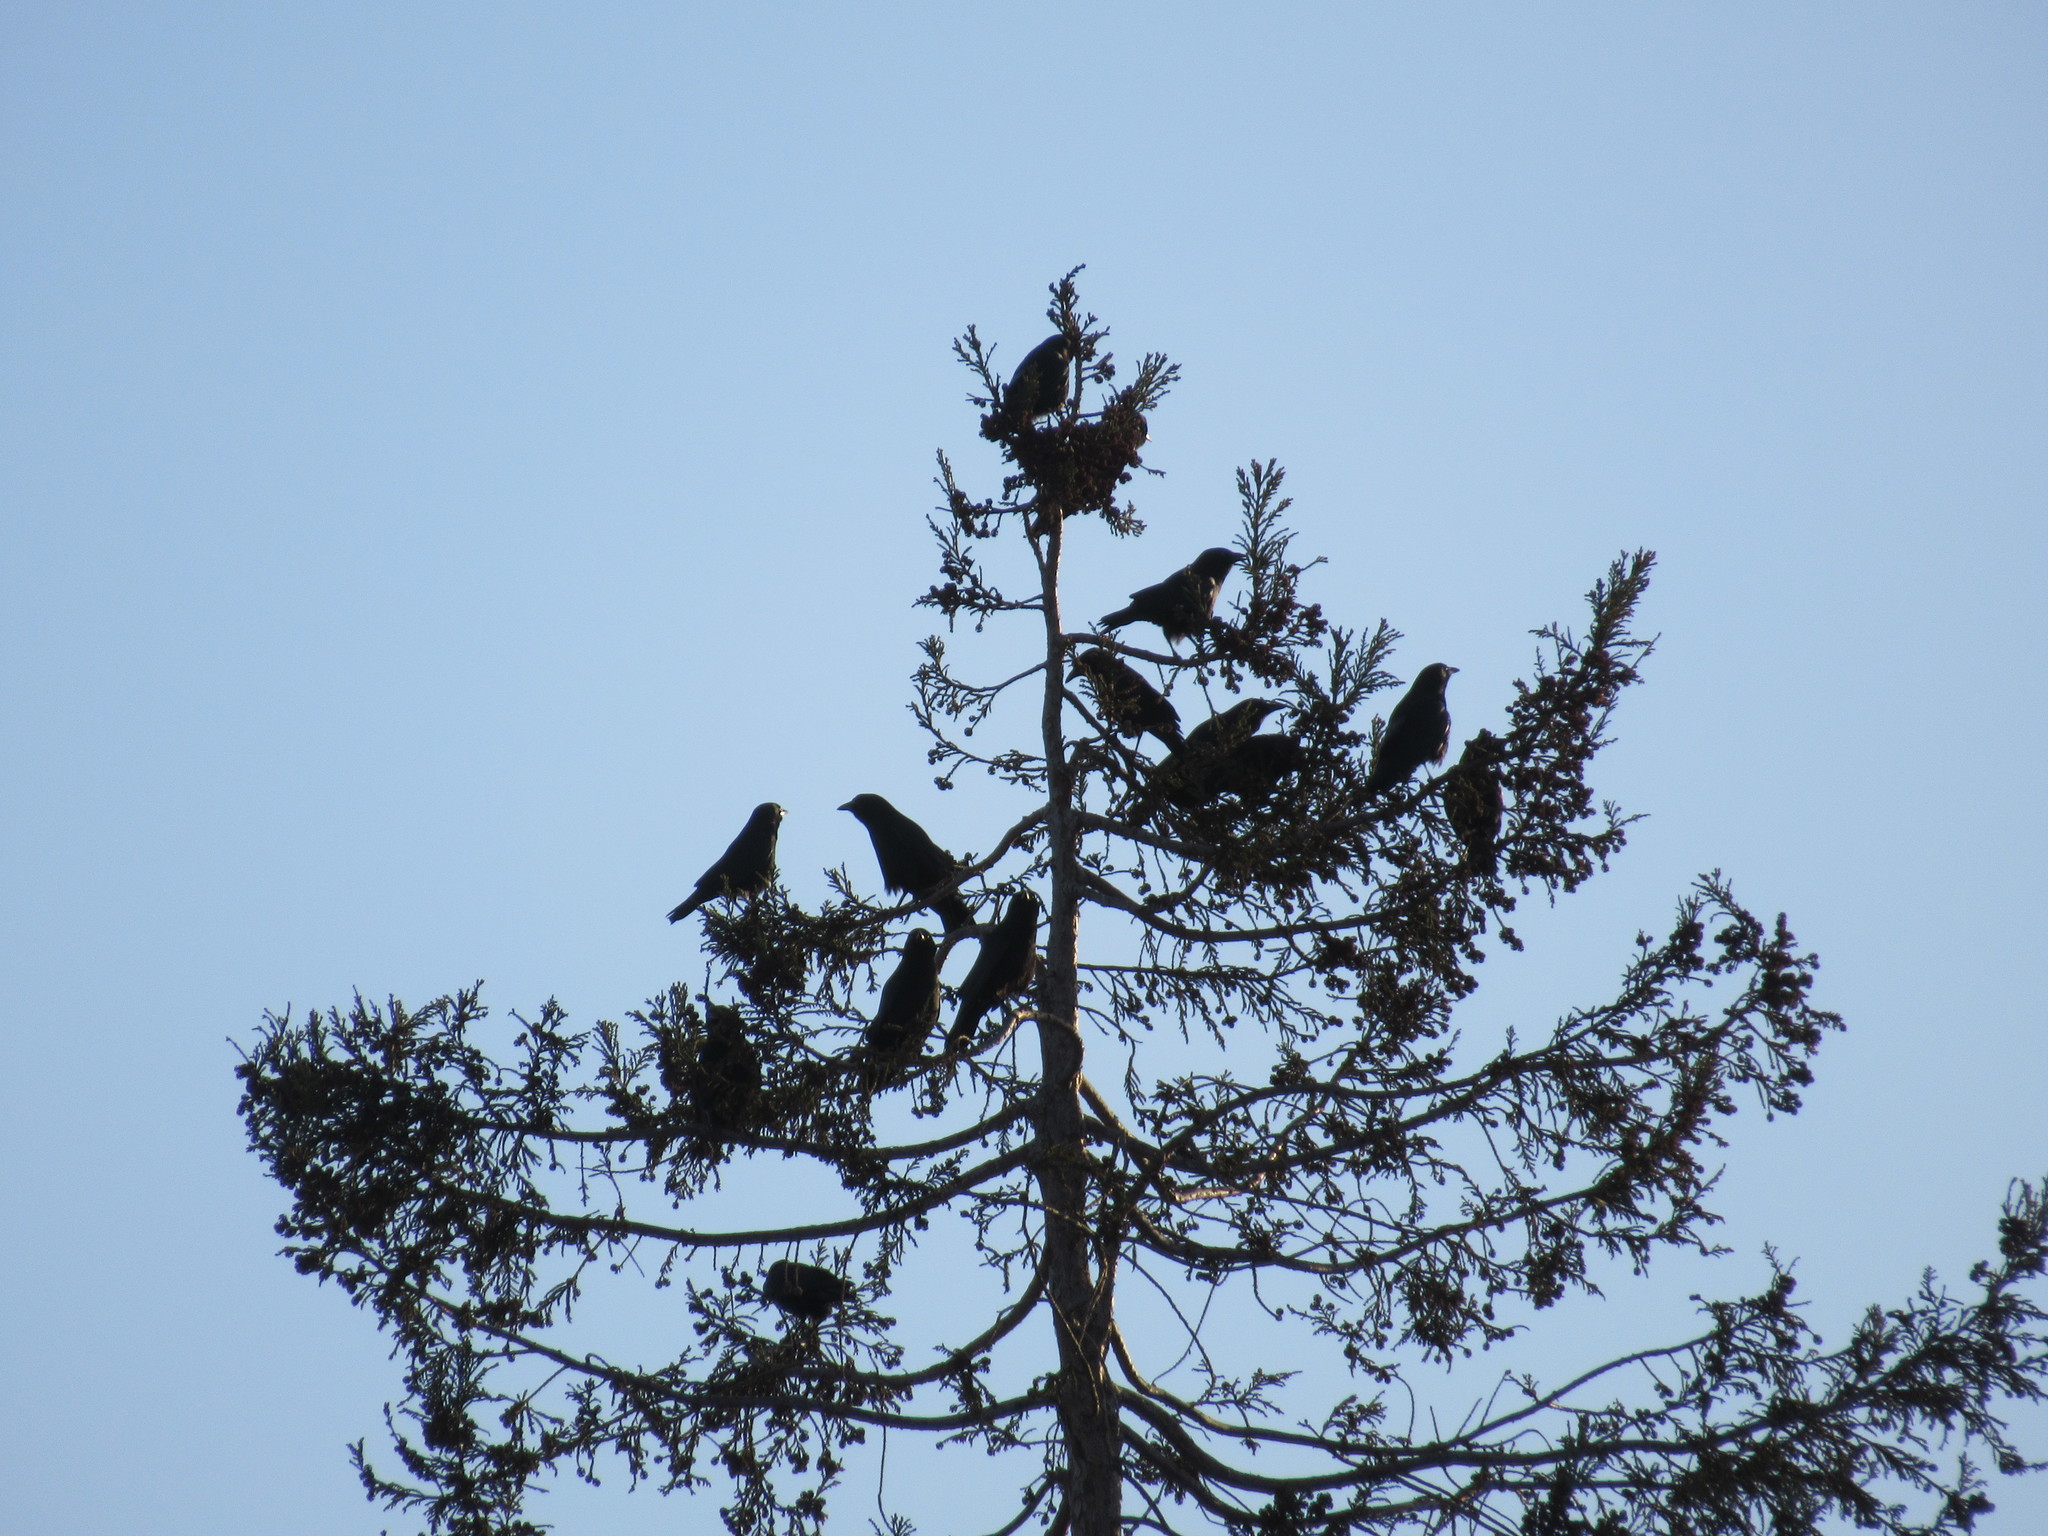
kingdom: Animalia
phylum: Chordata
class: Aves
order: Passeriformes
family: Corvidae
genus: Corvus
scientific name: Corvus brachyrhynchos
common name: American crow
